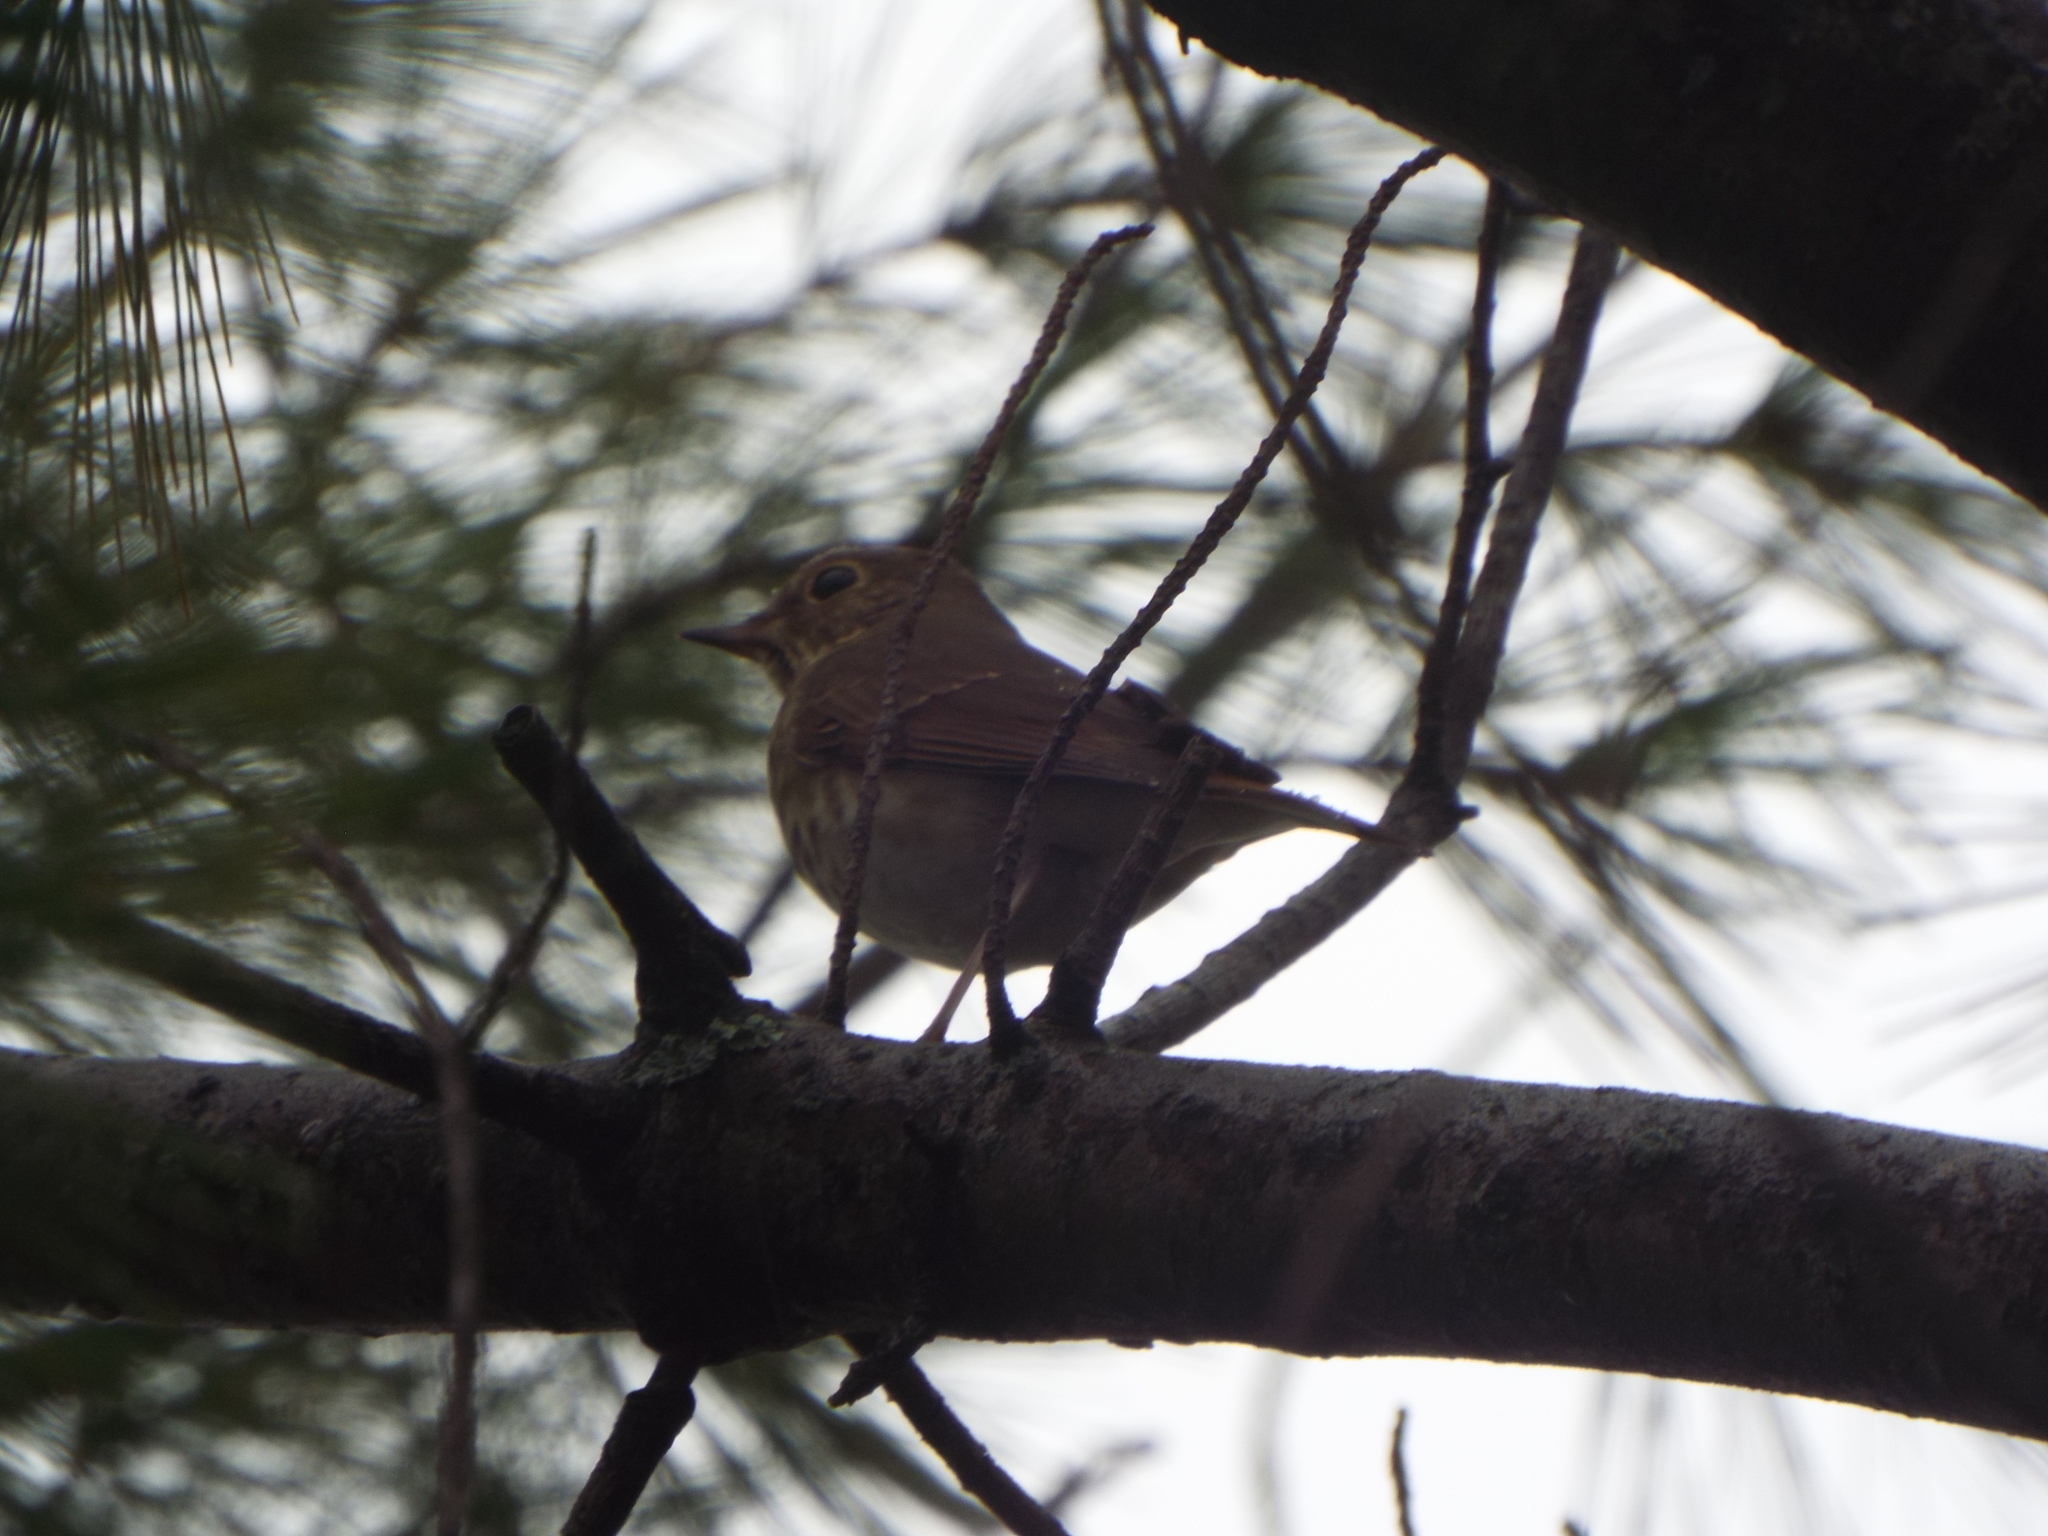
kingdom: Animalia
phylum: Chordata
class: Aves
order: Passeriformes
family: Turdidae
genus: Catharus
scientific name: Catharus guttatus
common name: Hermit thrush
